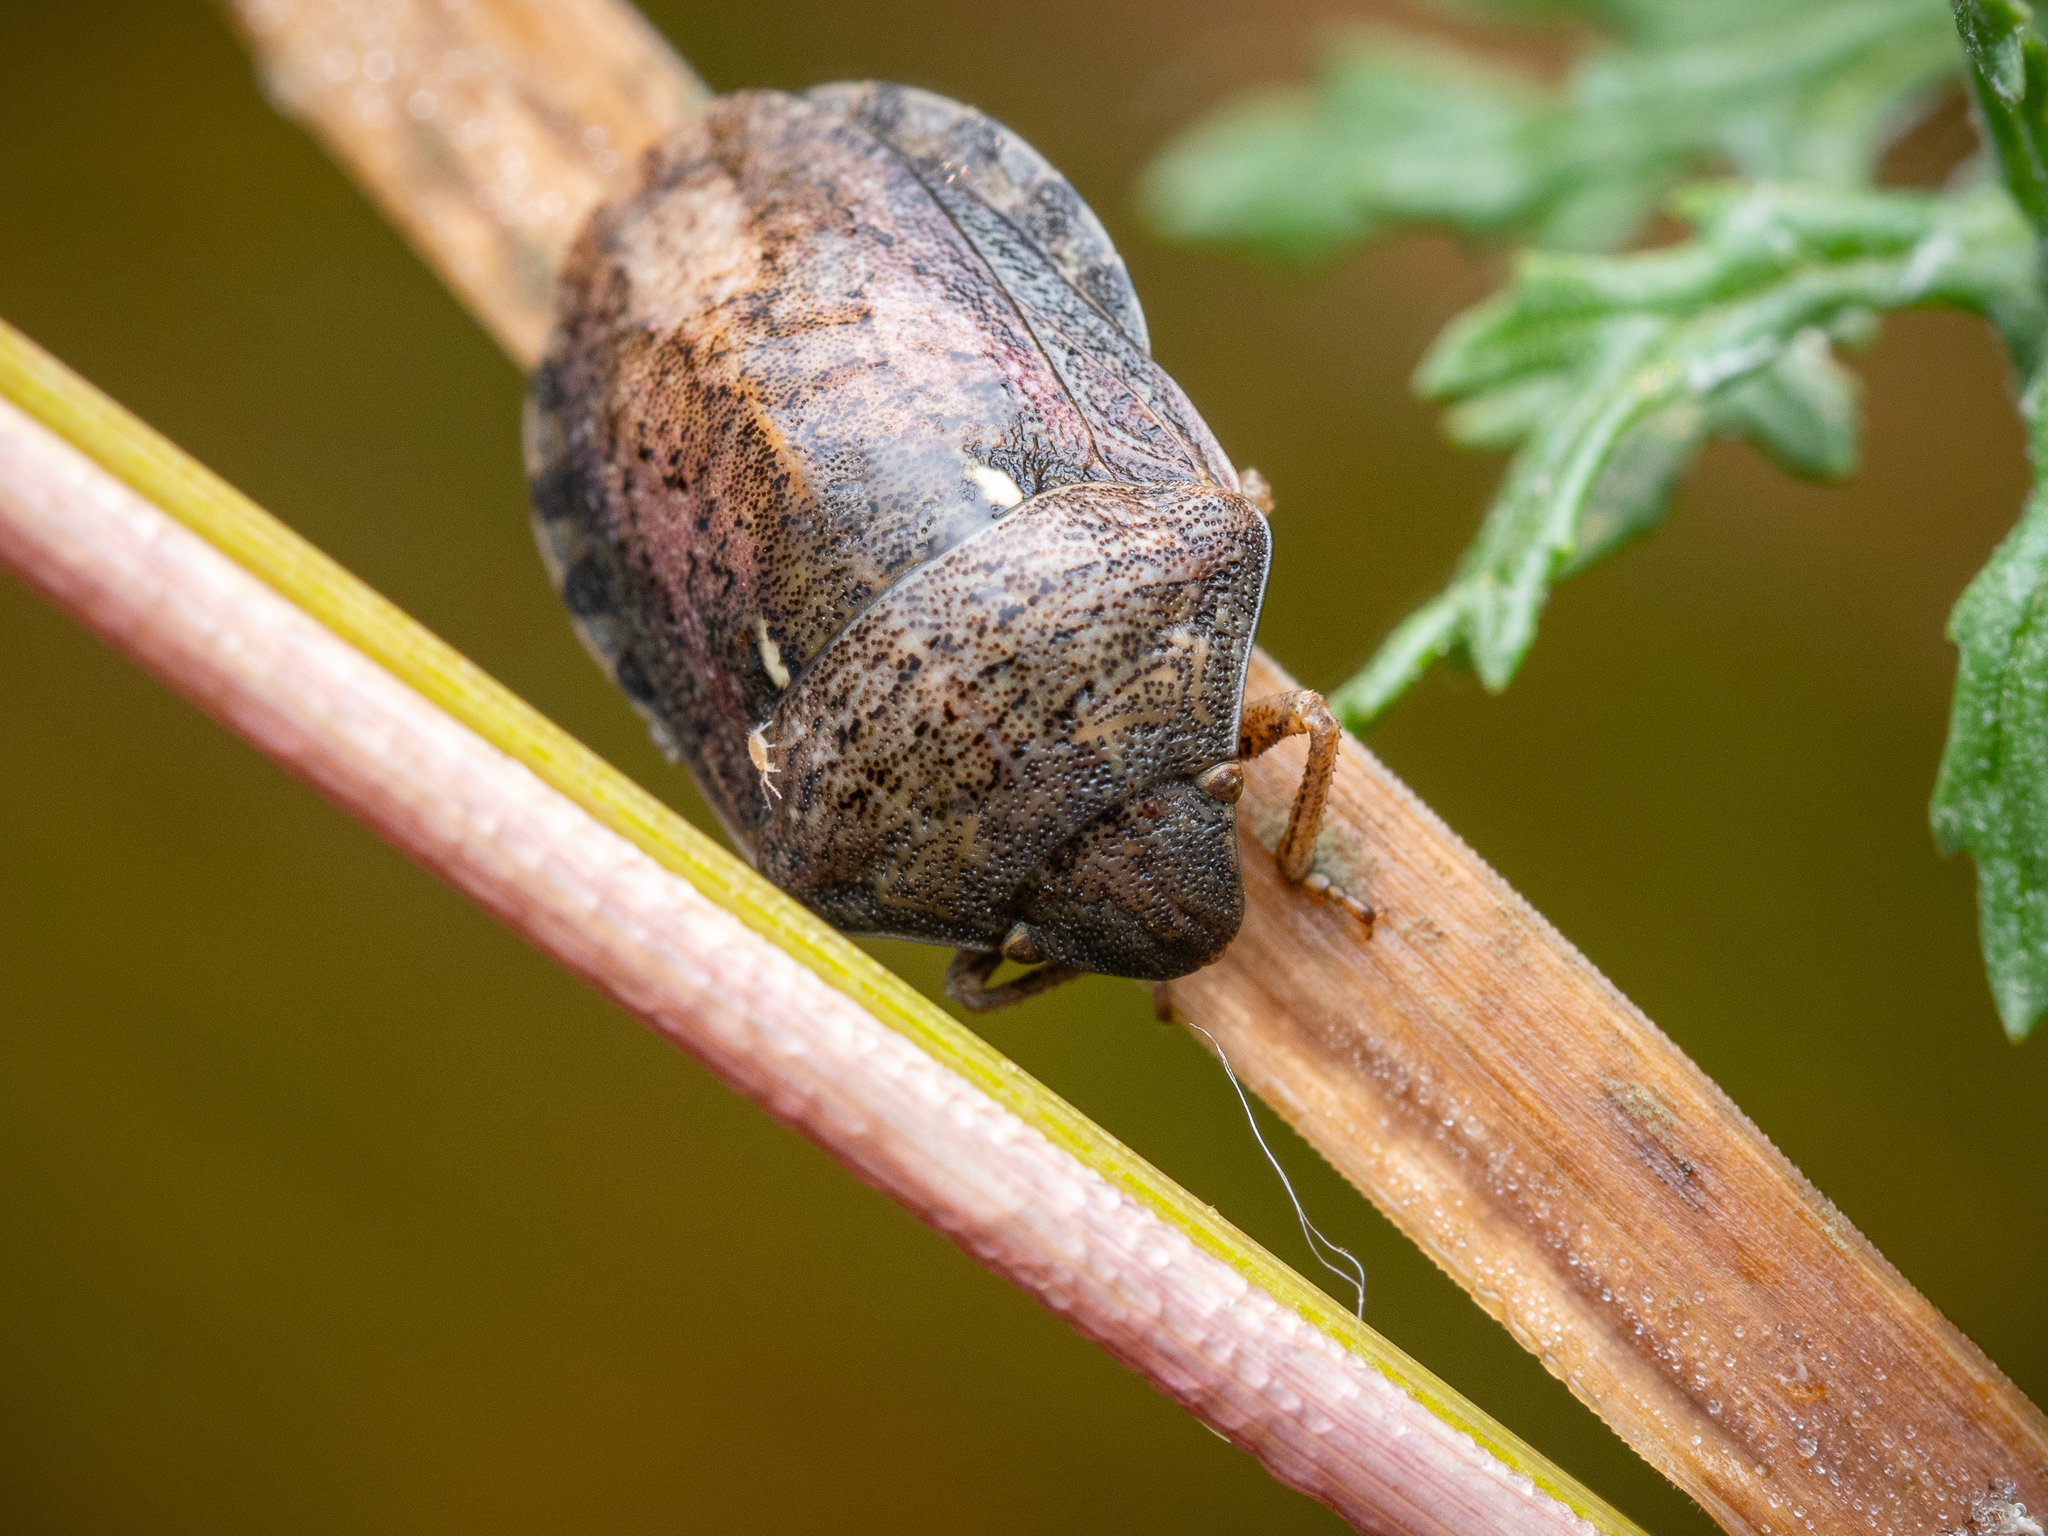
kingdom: Animalia
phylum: Arthropoda
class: Insecta
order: Hemiptera
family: Scutelleridae
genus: Eurygaster
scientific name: Eurygaster maura
